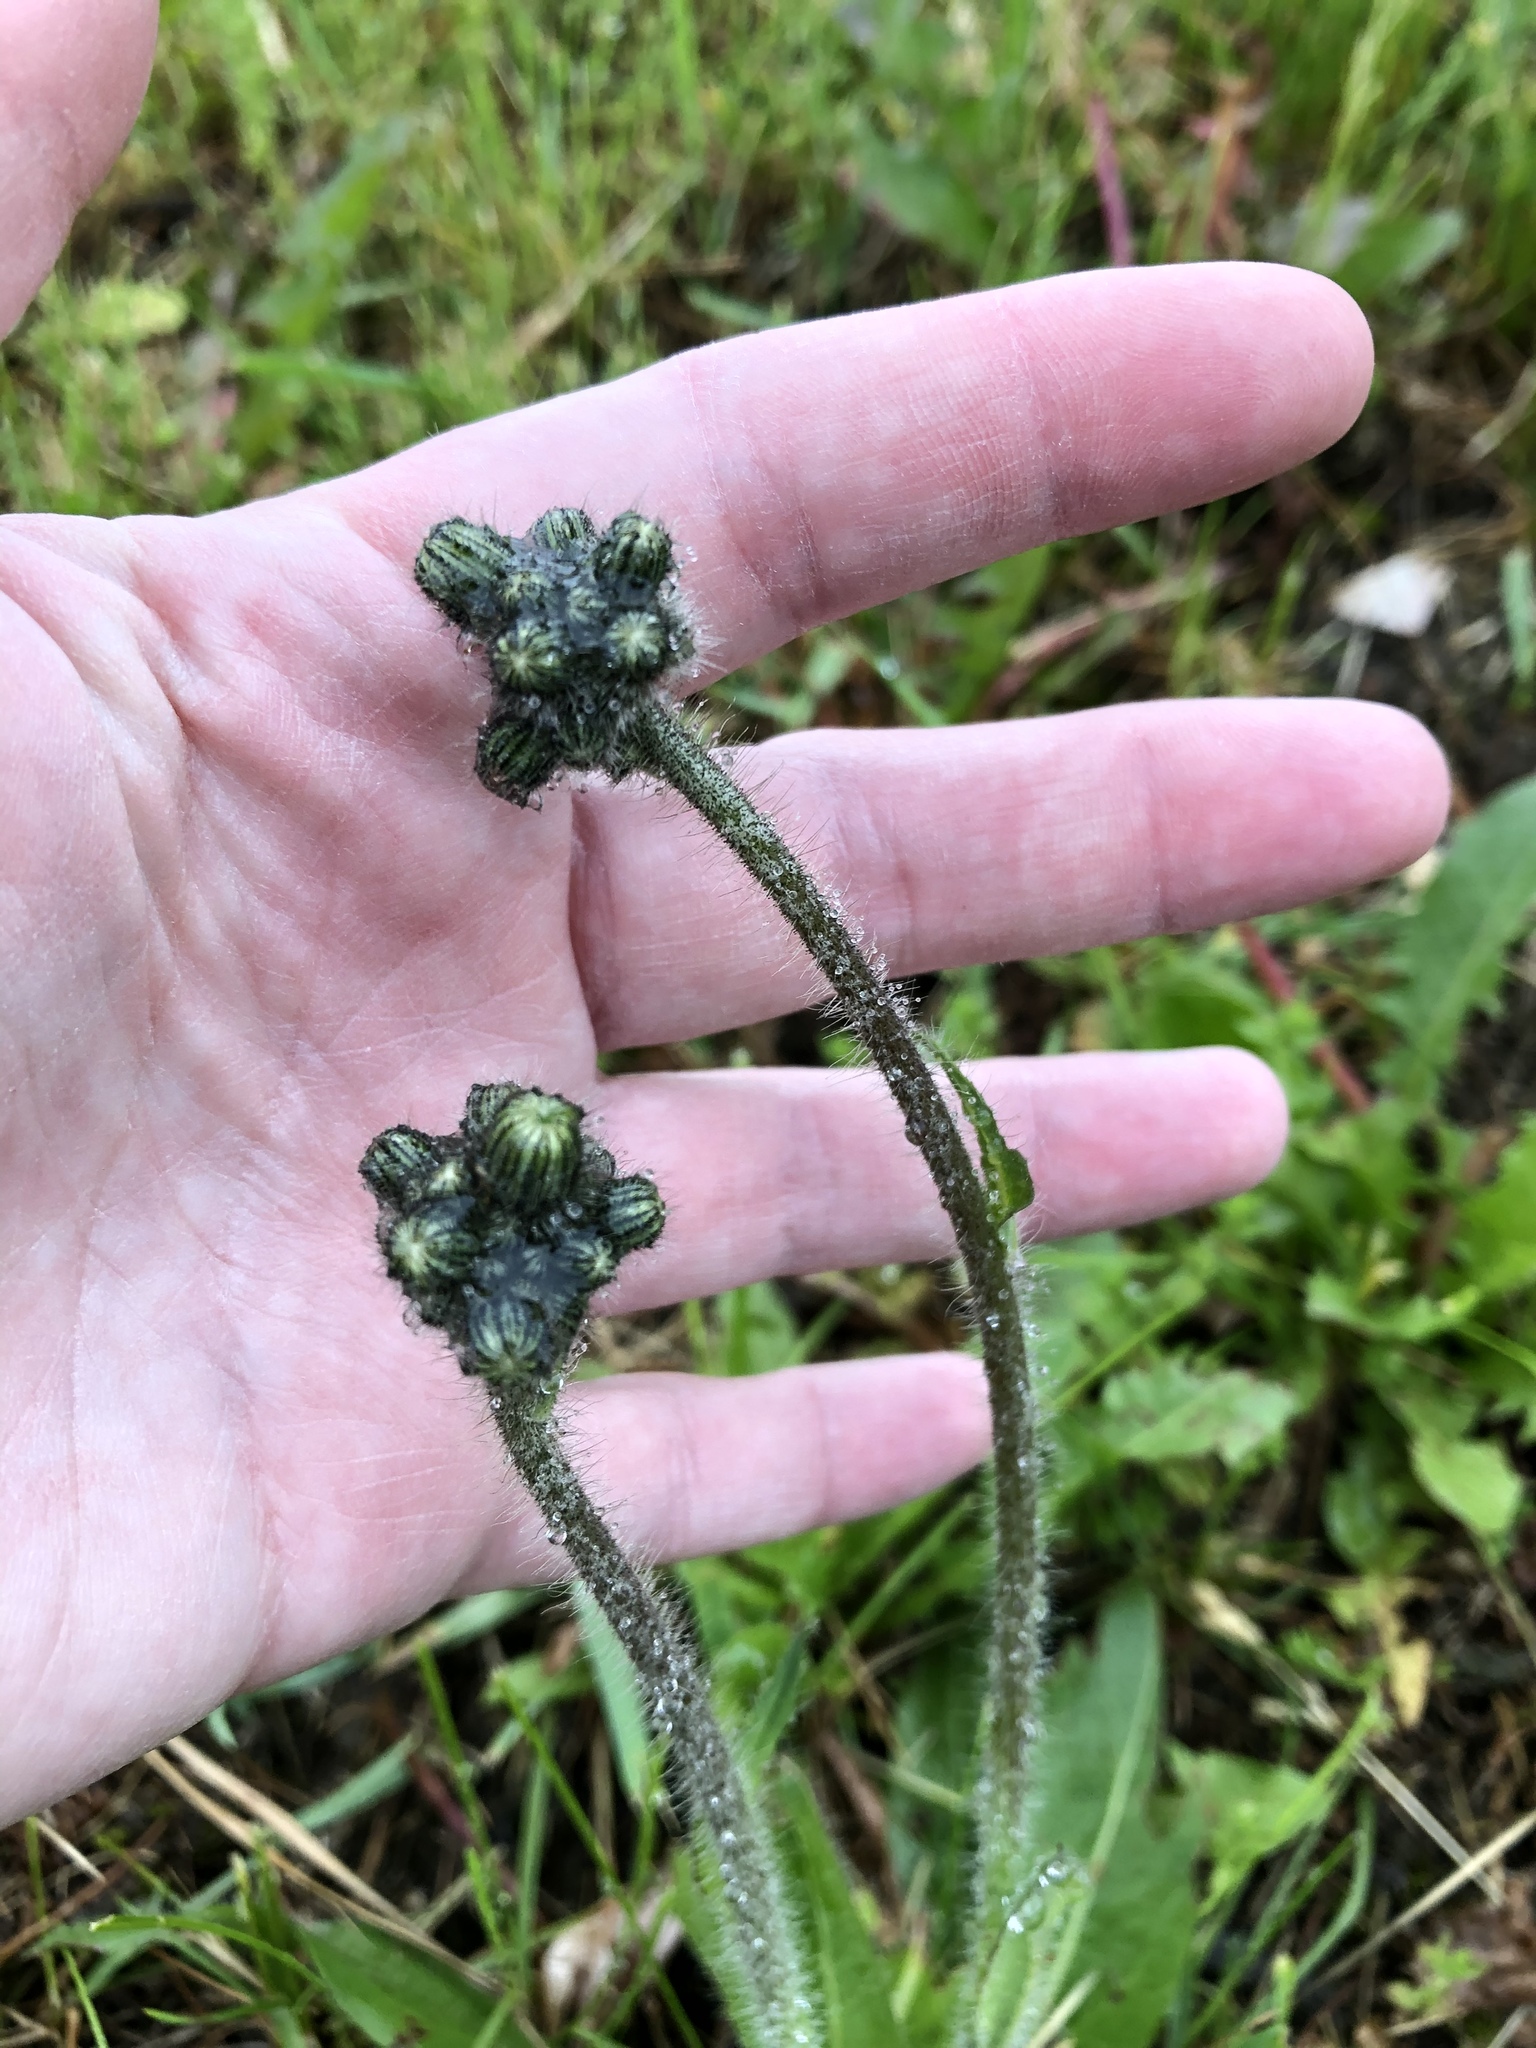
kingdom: Plantae
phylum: Tracheophyta
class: Magnoliopsida
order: Asterales
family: Asteraceae
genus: Pilosella
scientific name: Pilosella caespitosa
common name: Yellow fox-and-cubs
